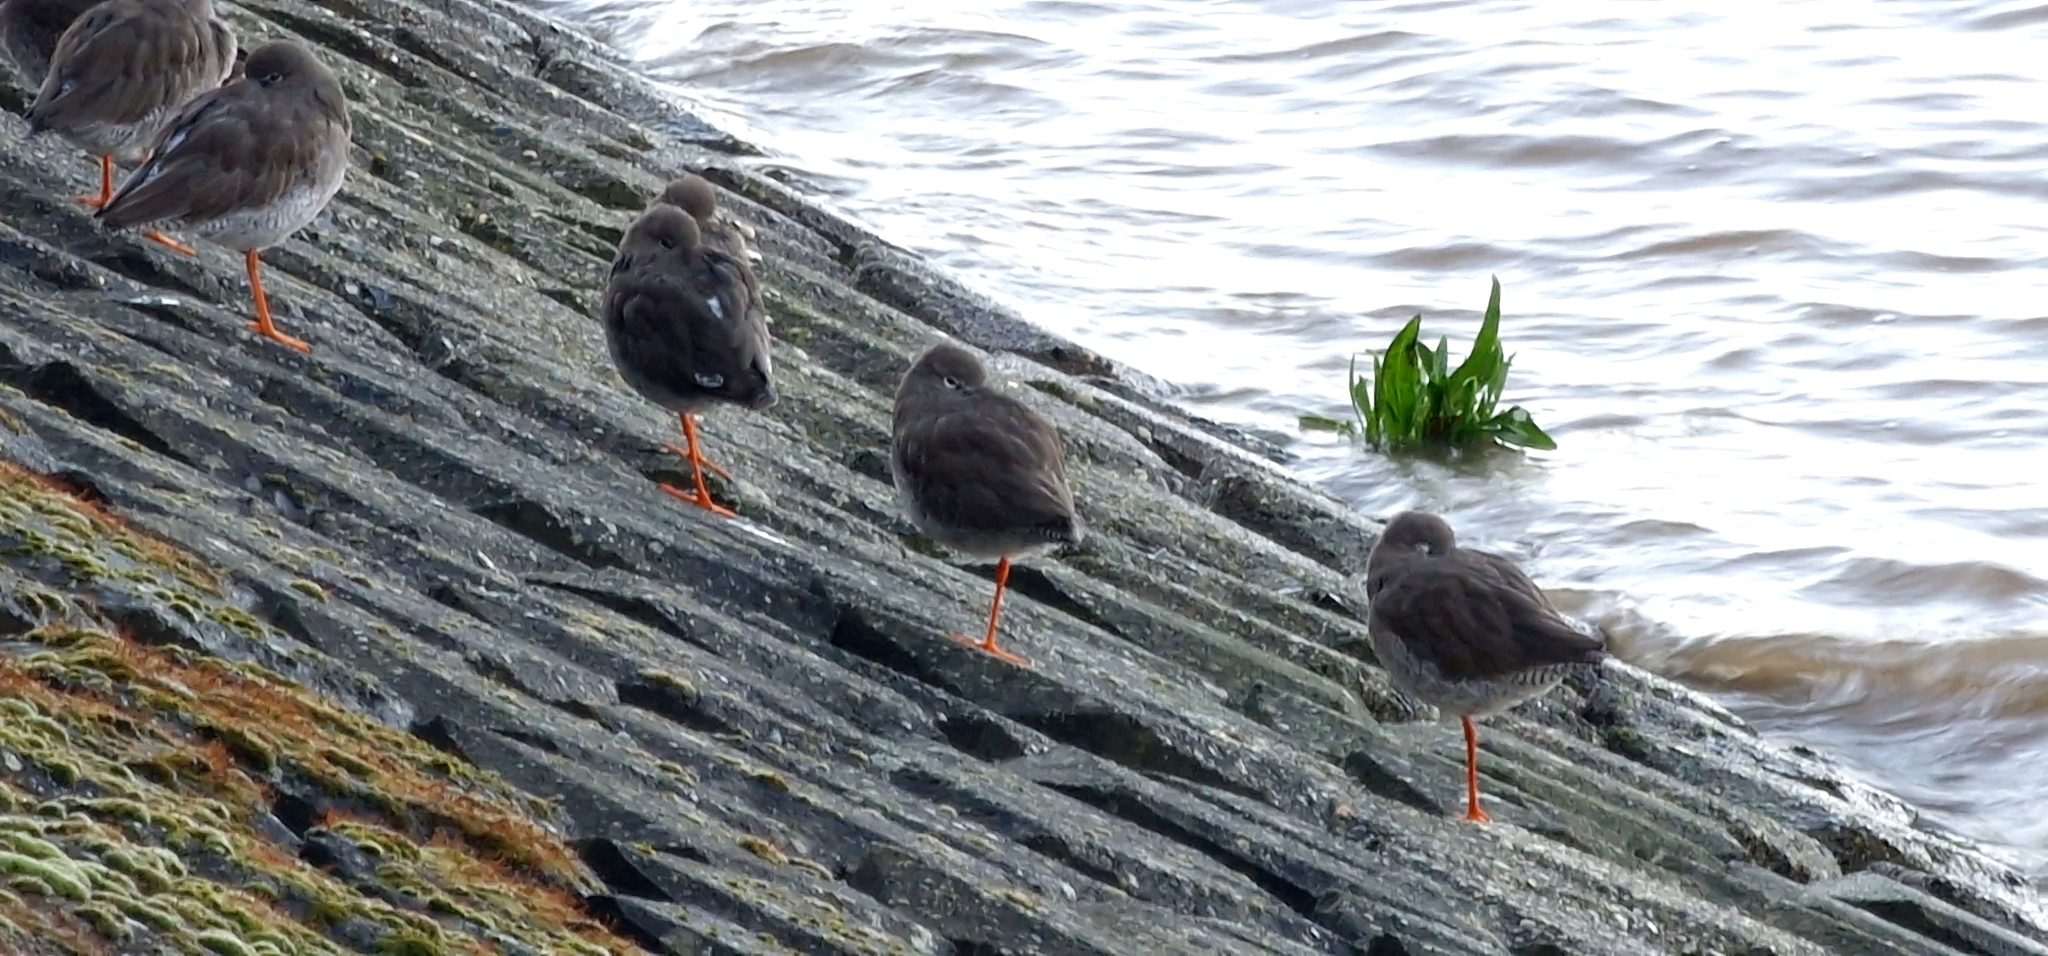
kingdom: Animalia
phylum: Chordata
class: Aves
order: Charadriiformes
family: Scolopacidae
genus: Tringa
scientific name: Tringa totanus
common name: Common redshank
